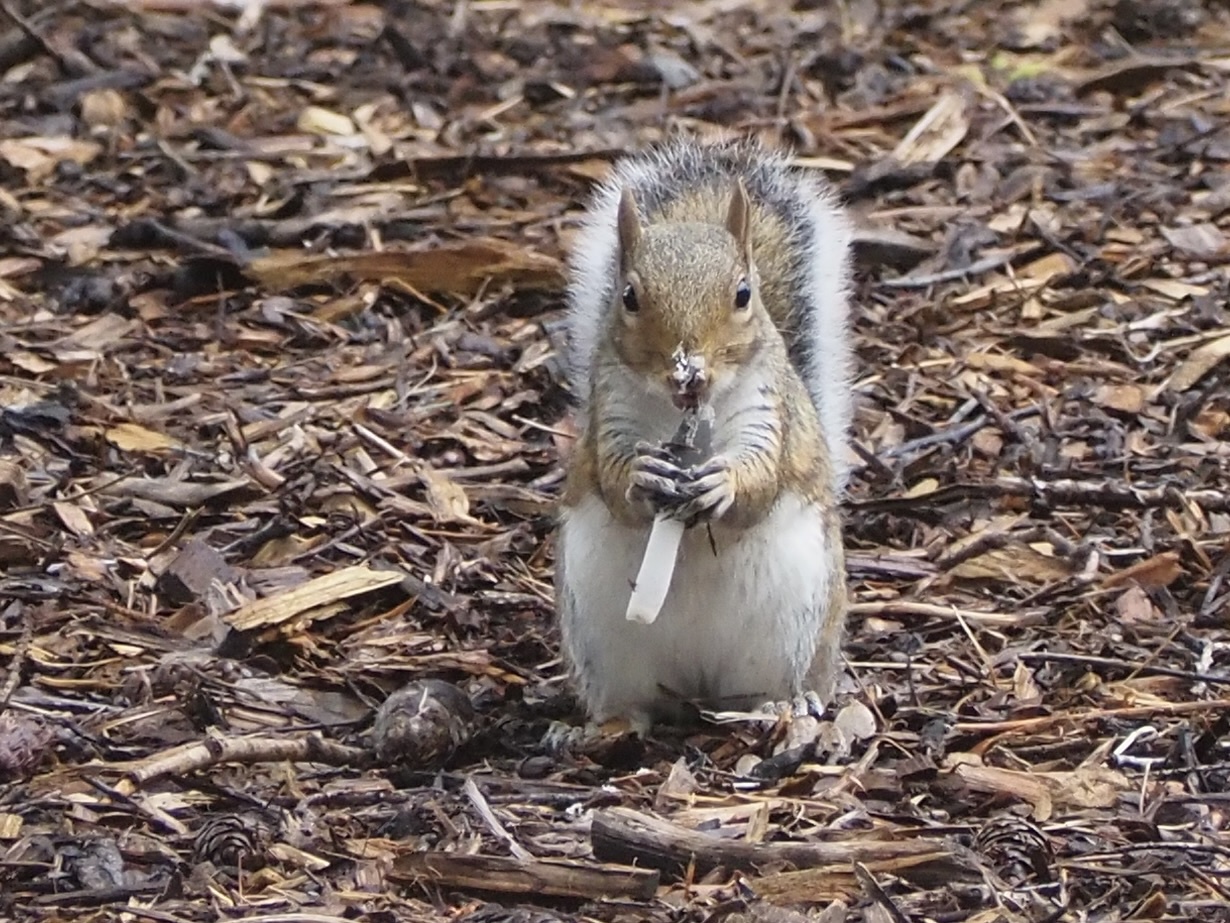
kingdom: Animalia
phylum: Chordata
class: Mammalia
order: Rodentia
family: Sciuridae
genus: Sciurus
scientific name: Sciurus carolinensis
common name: Eastern gray squirrel
